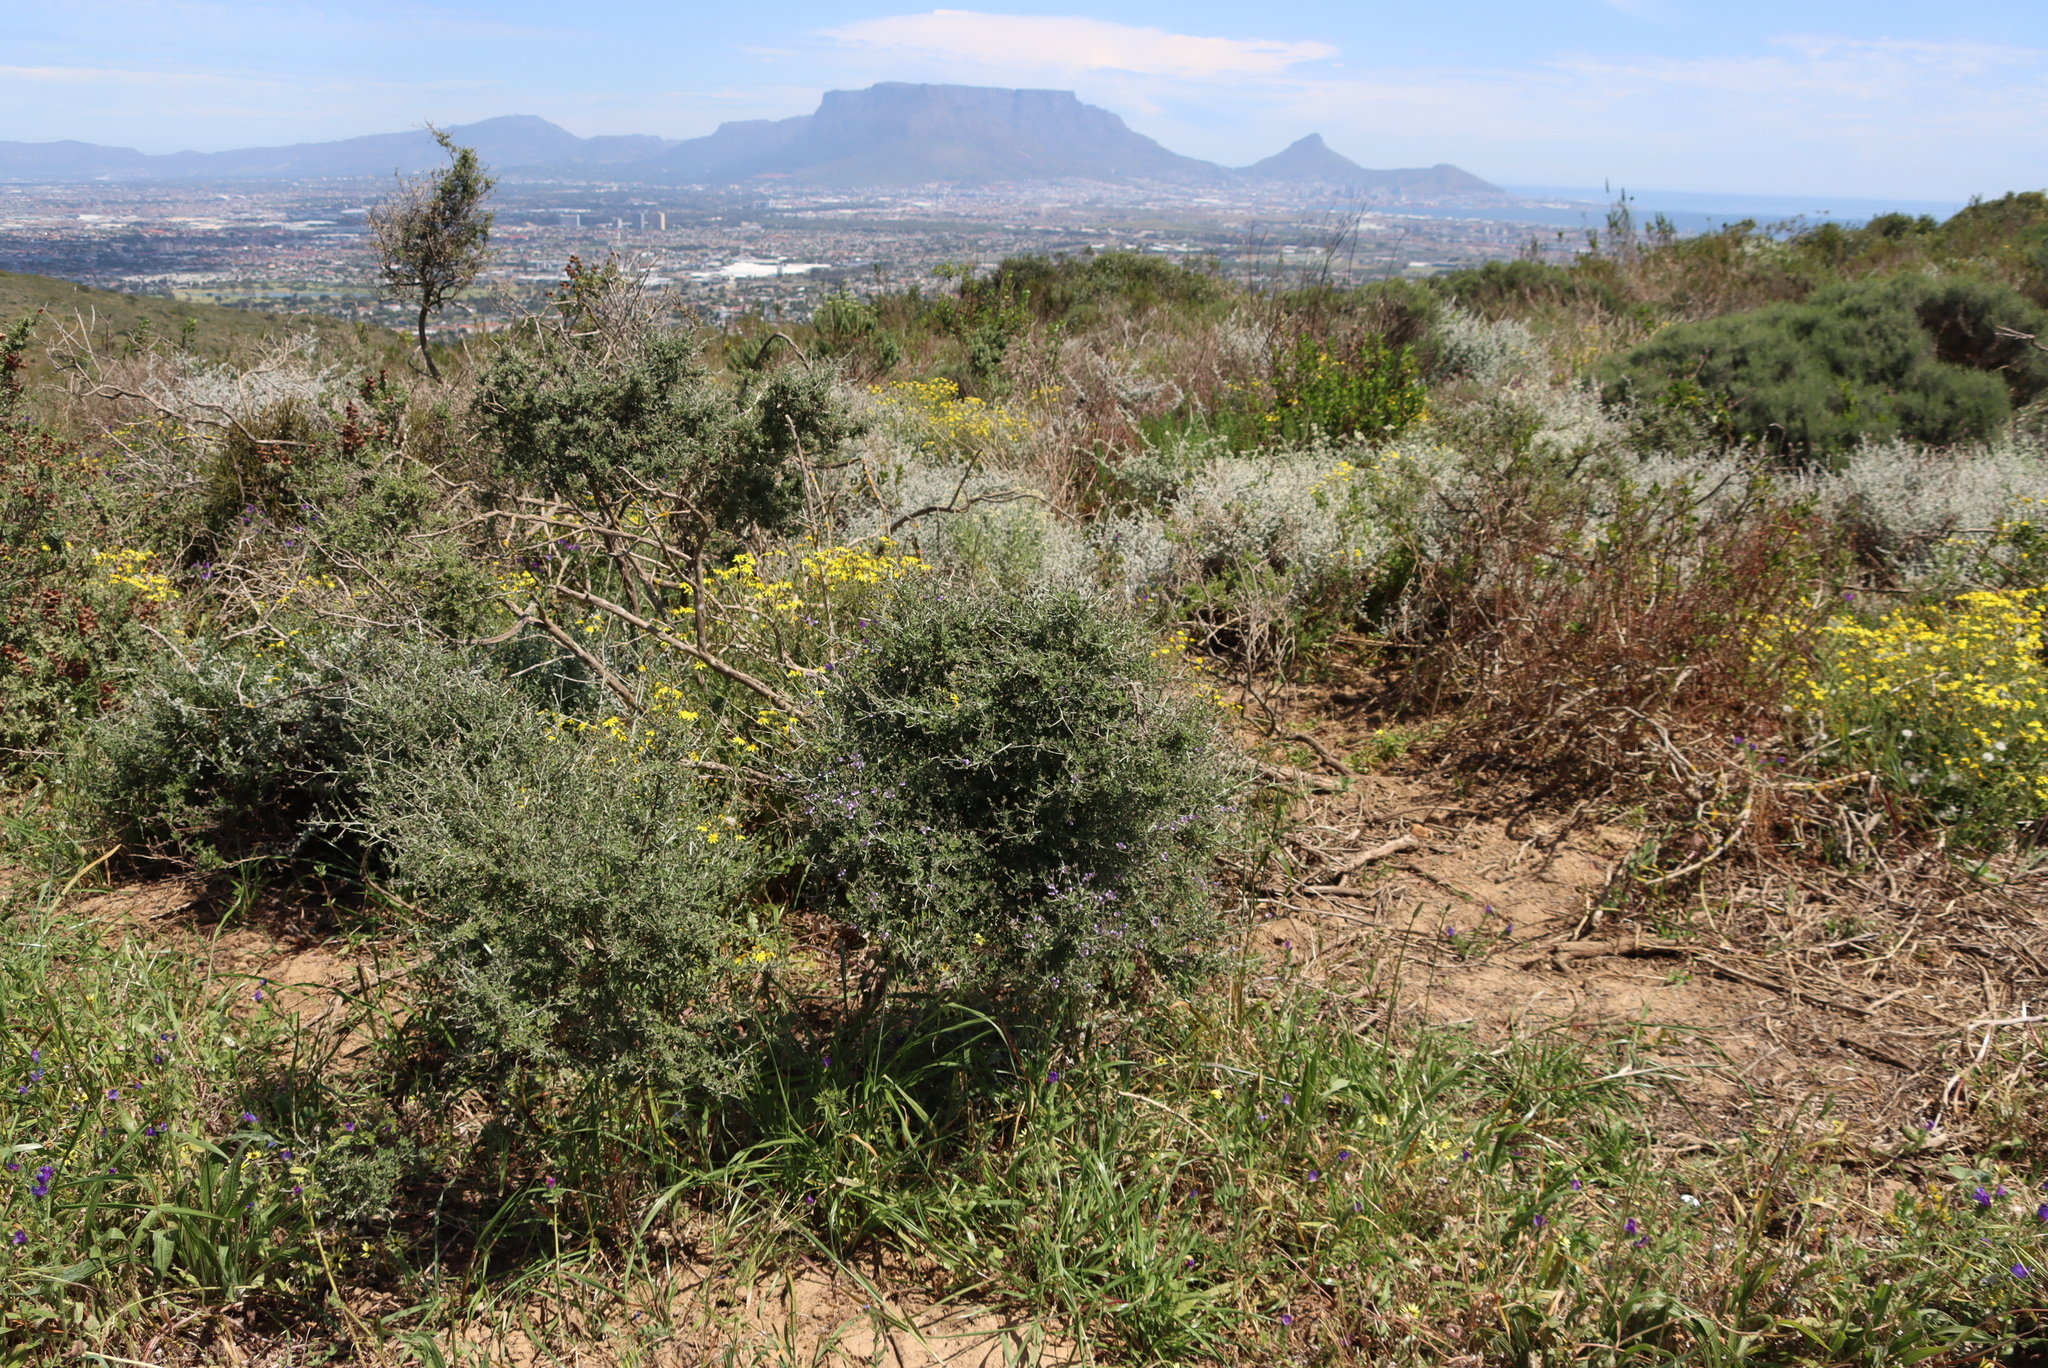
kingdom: Plantae
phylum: Tracheophyta
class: Magnoliopsida
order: Fabales
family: Fabaceae
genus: Psoralea
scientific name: Psoralea hirta
